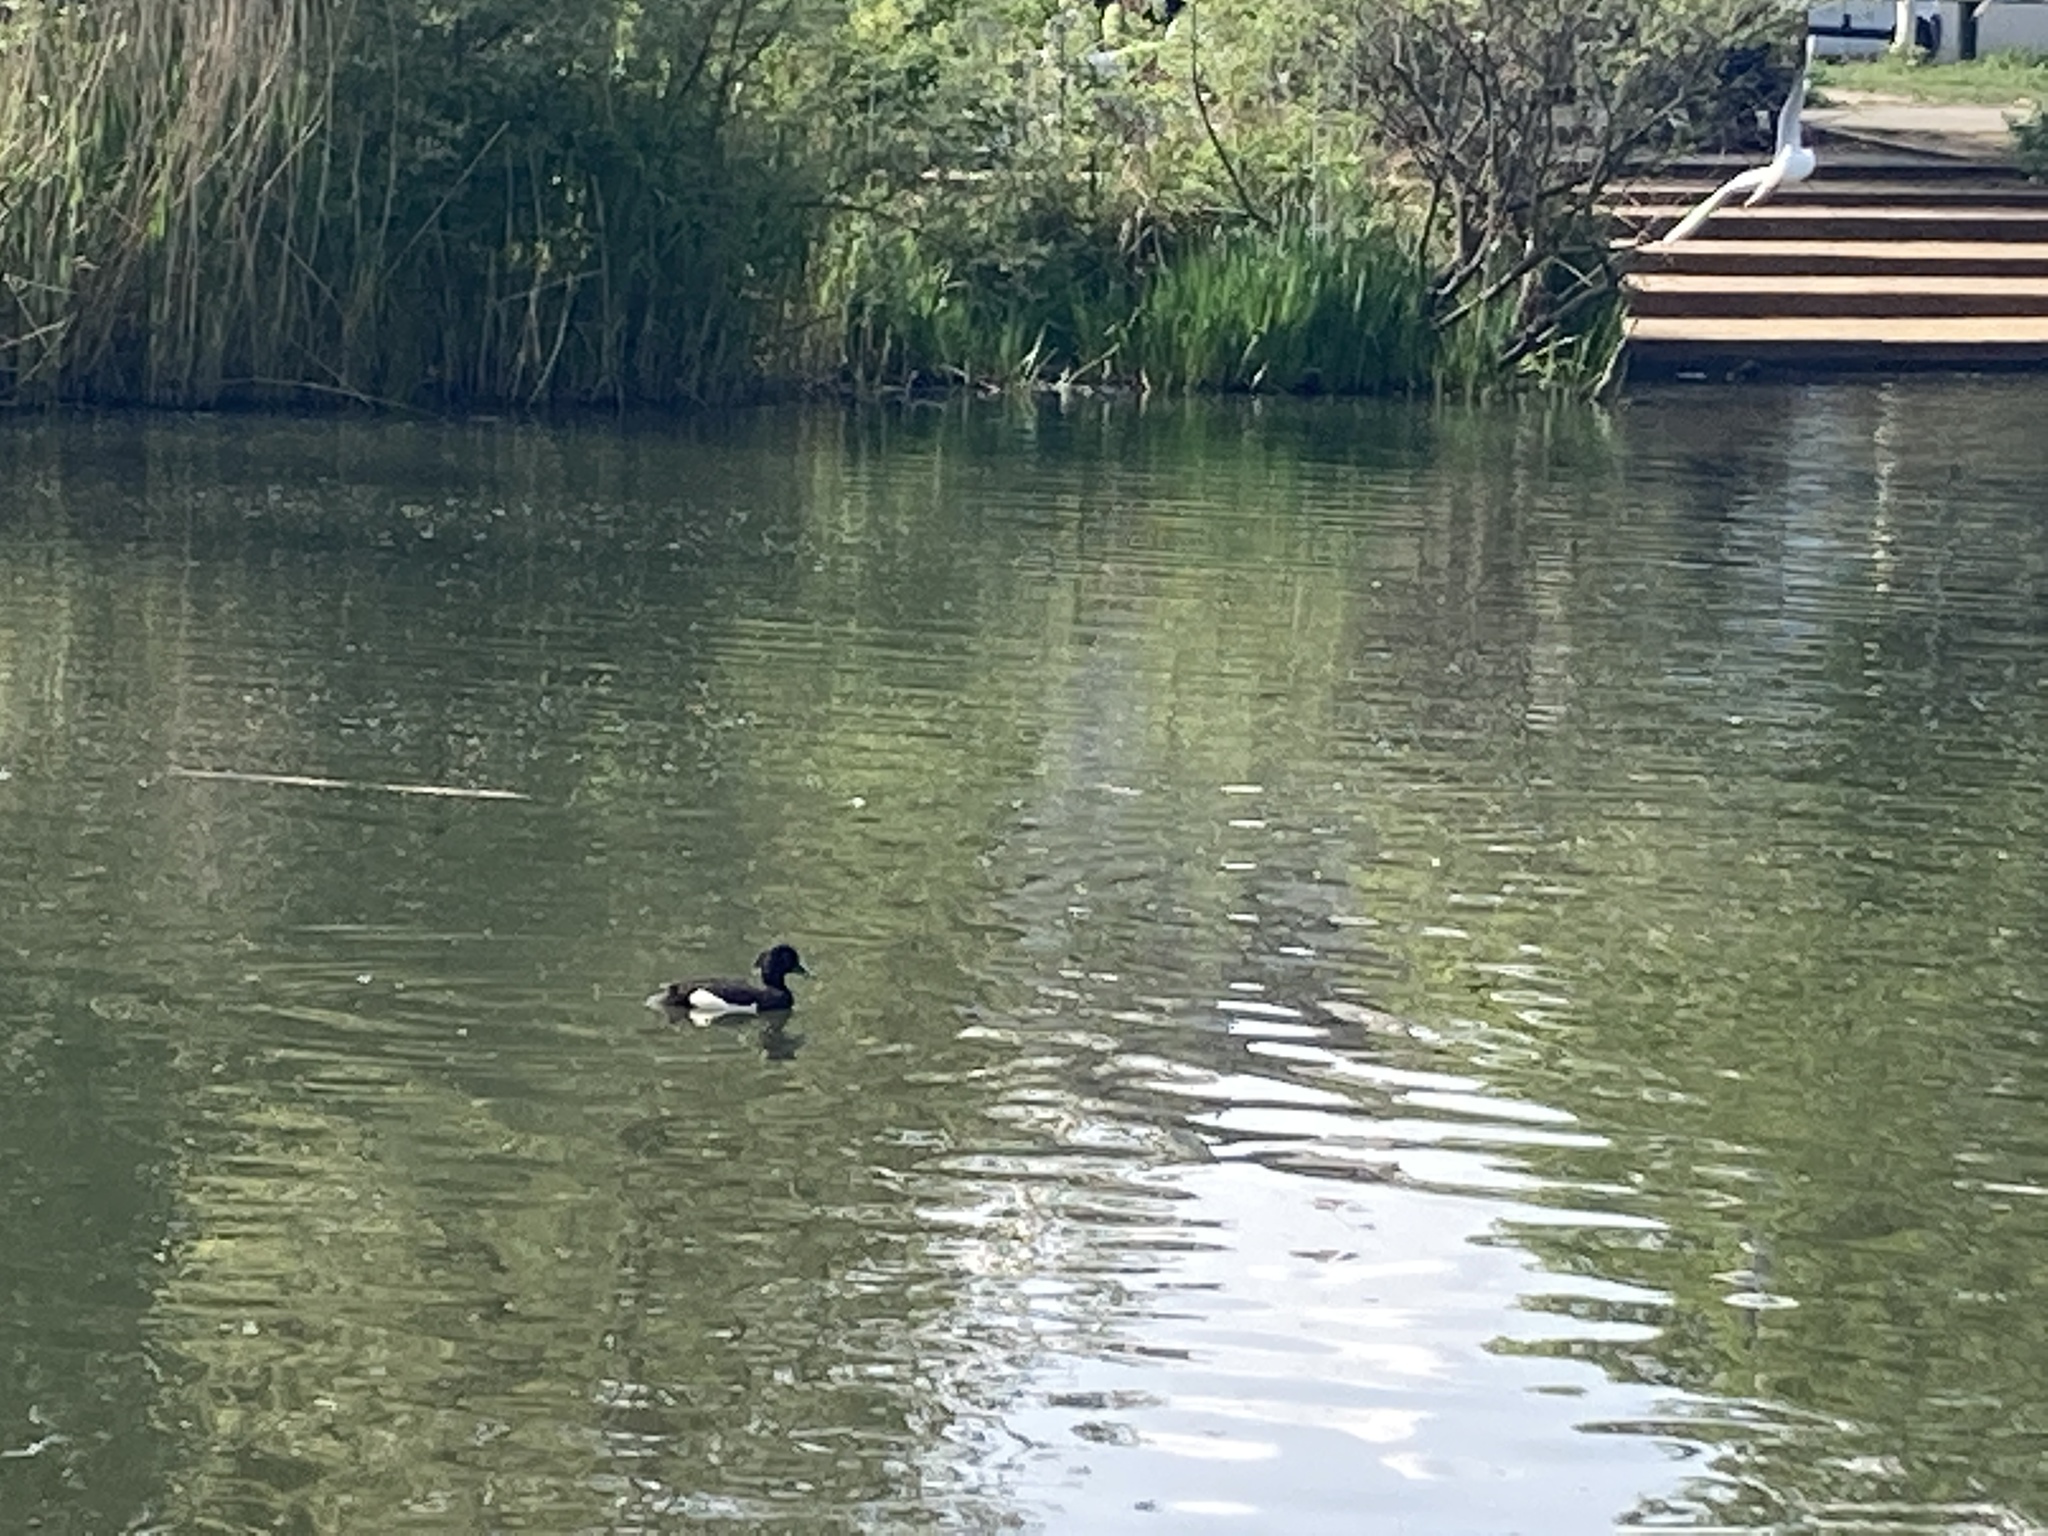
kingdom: Animalia
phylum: Chordata
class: Aves
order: Anseriformes
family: Anatidae
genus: Aythya
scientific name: Aythya fuligula
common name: Tufted duck
